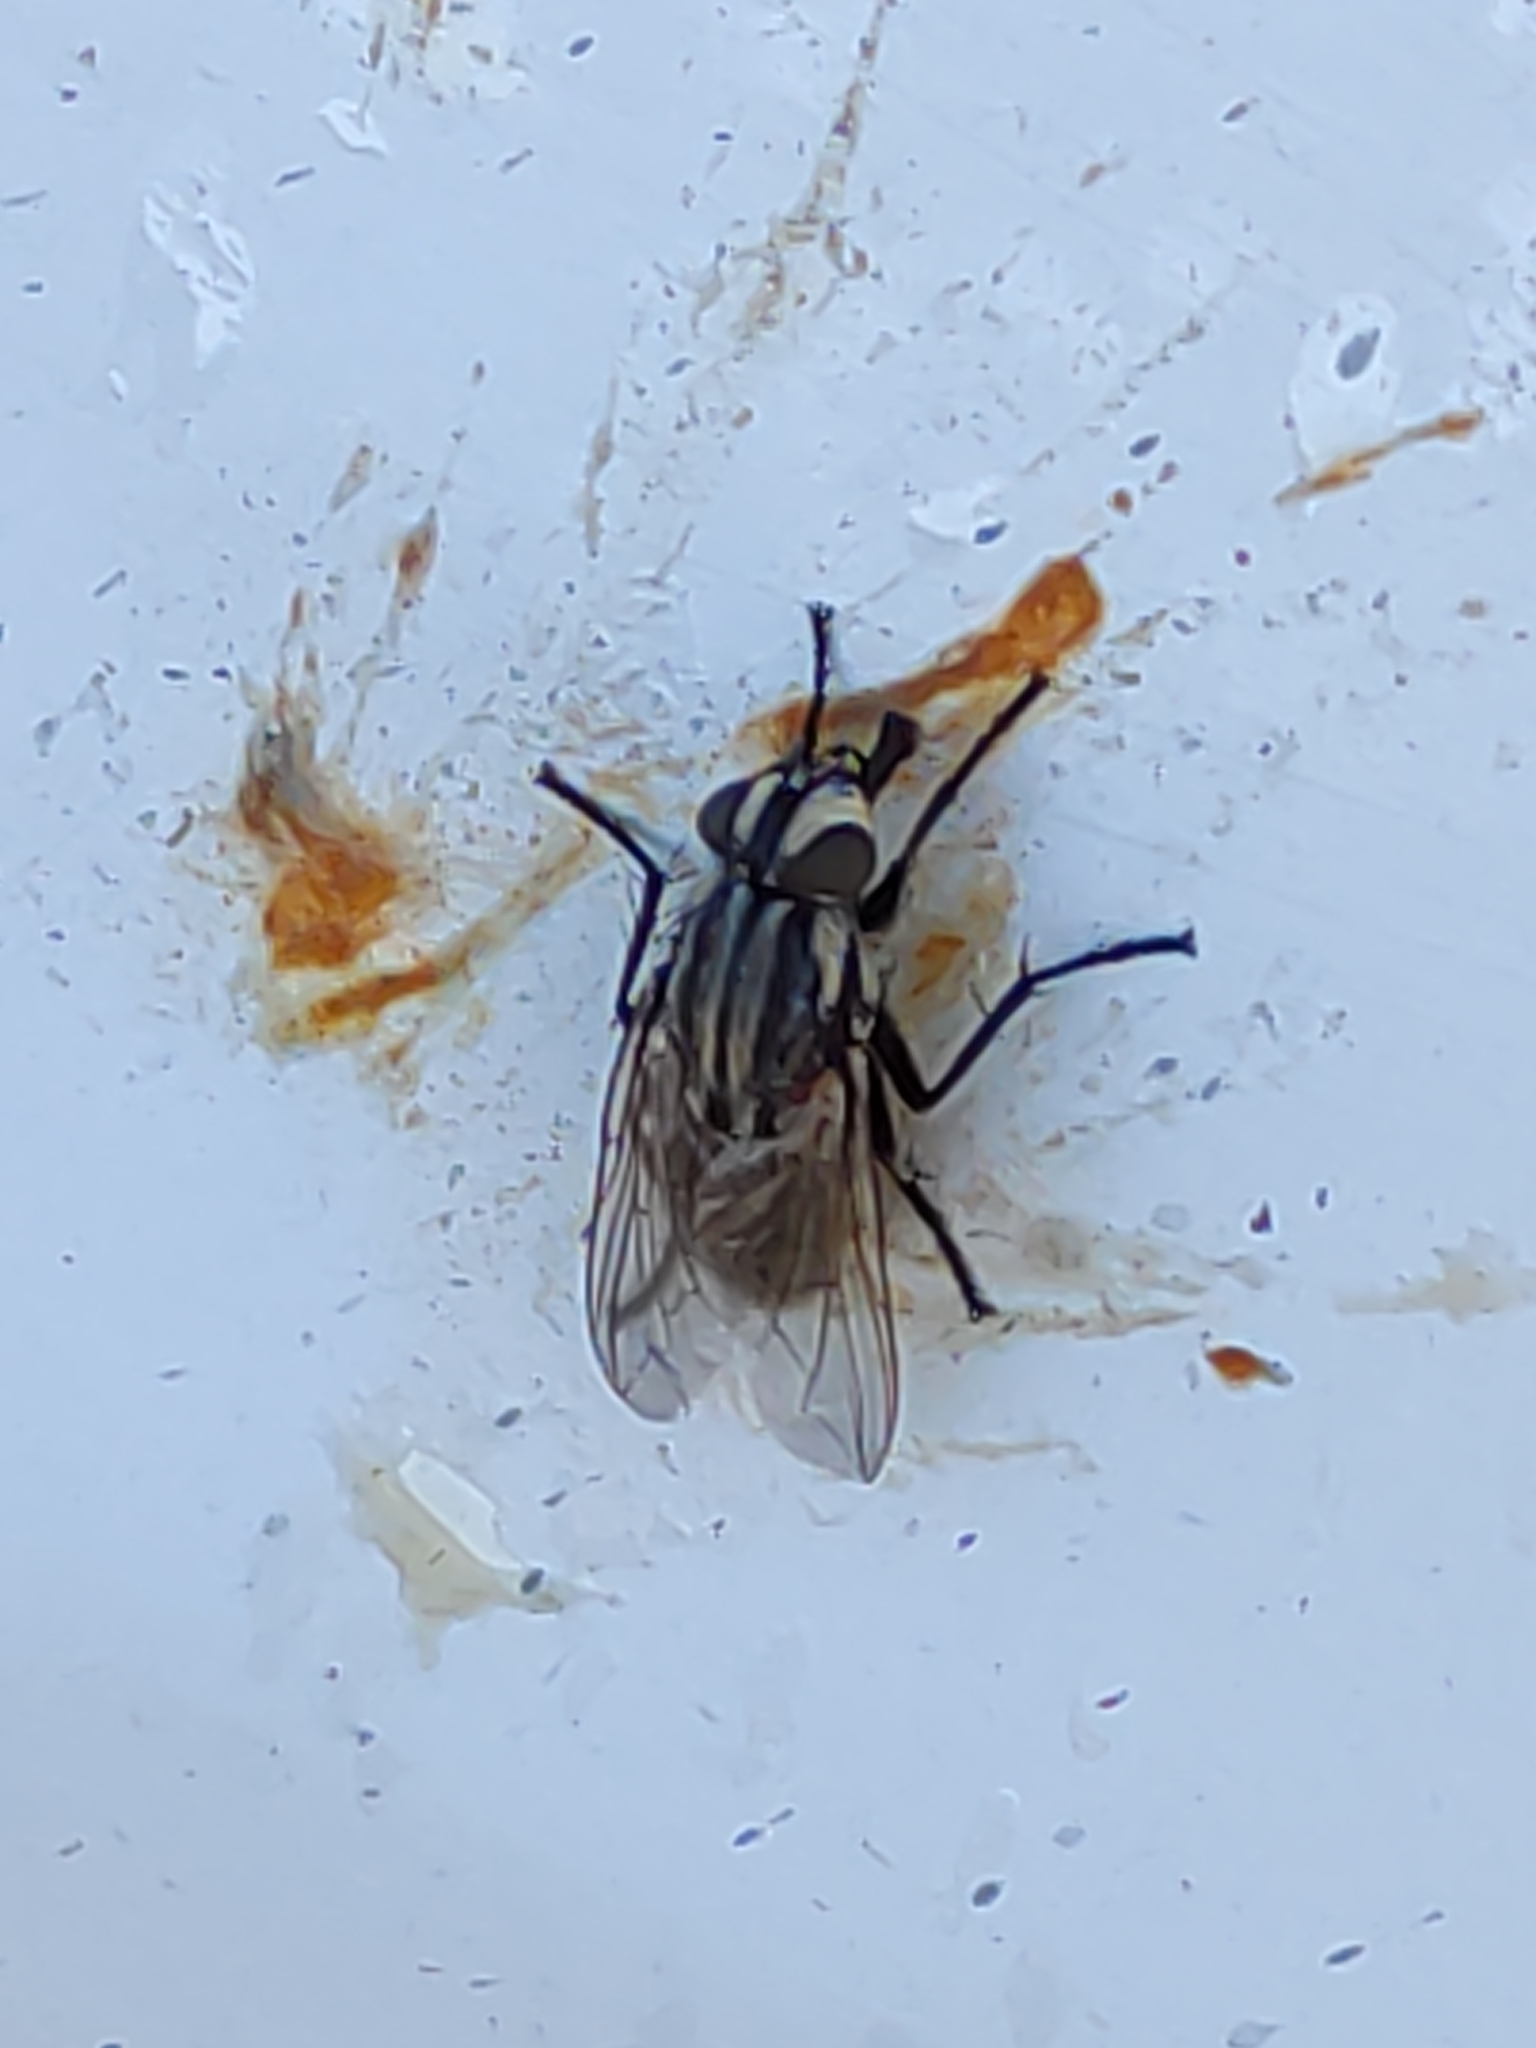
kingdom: Animalia
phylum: Arthropoda
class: Insecta
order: Diptera
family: Sarcophagidae
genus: Oxysarcodexia
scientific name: Oxysarcodexia varia
